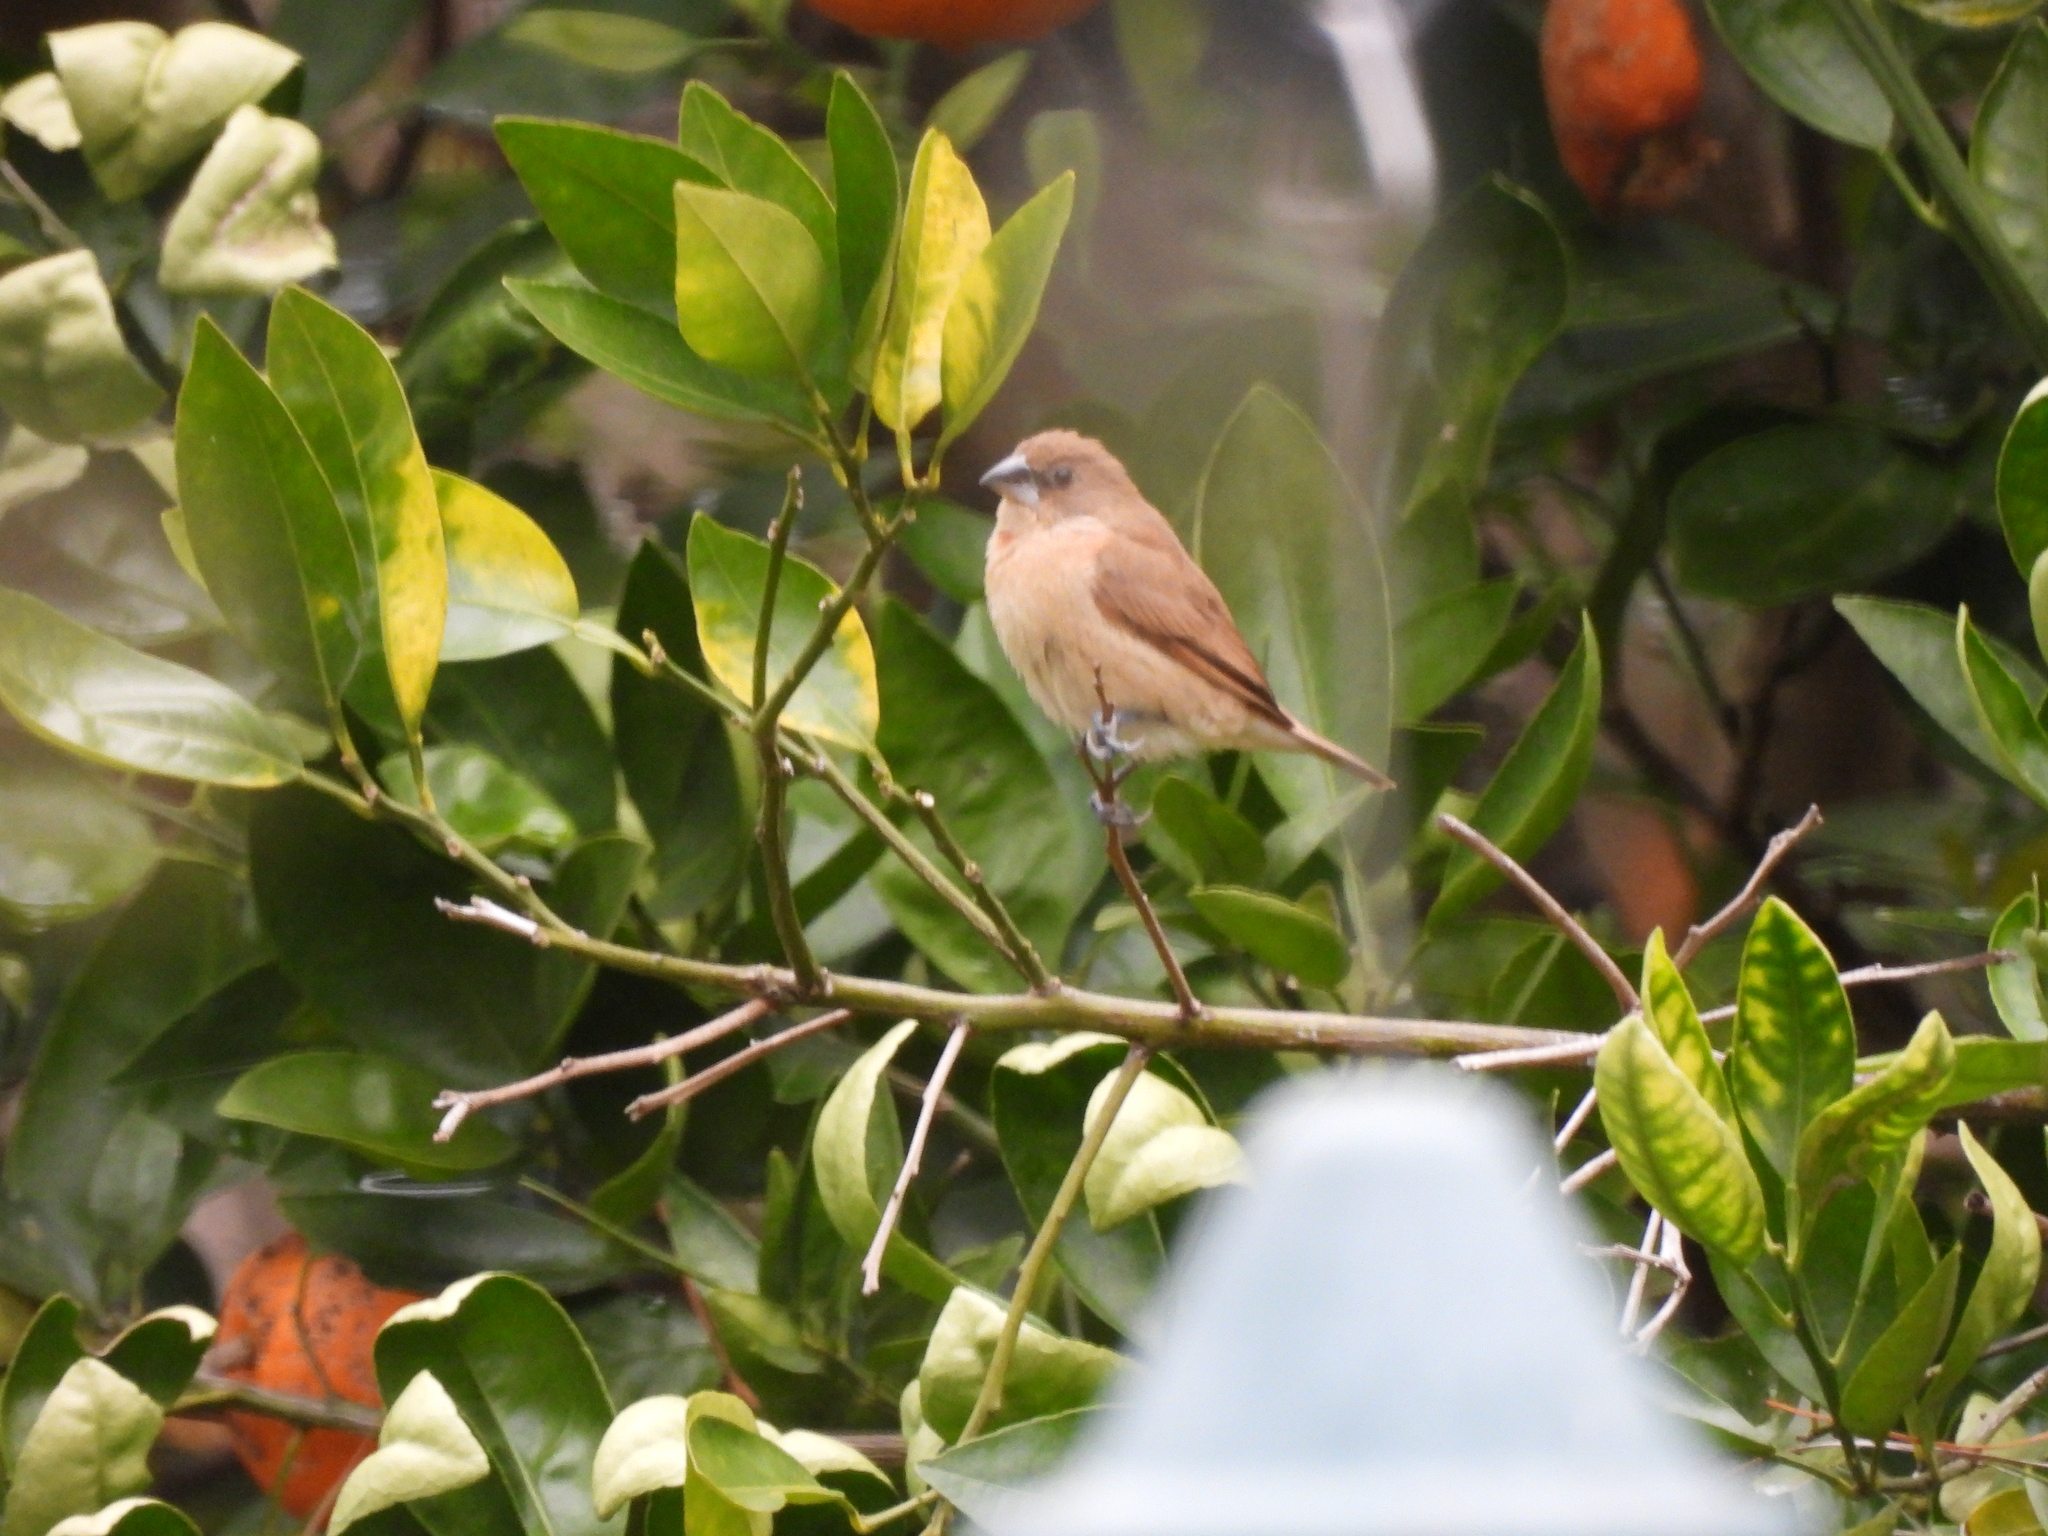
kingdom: Animalia
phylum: Chordata
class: Aves
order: Passeriformes
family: Estrildidae
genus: Lonchura
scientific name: Lonchura punctulata
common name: Scaly-breasted munia
